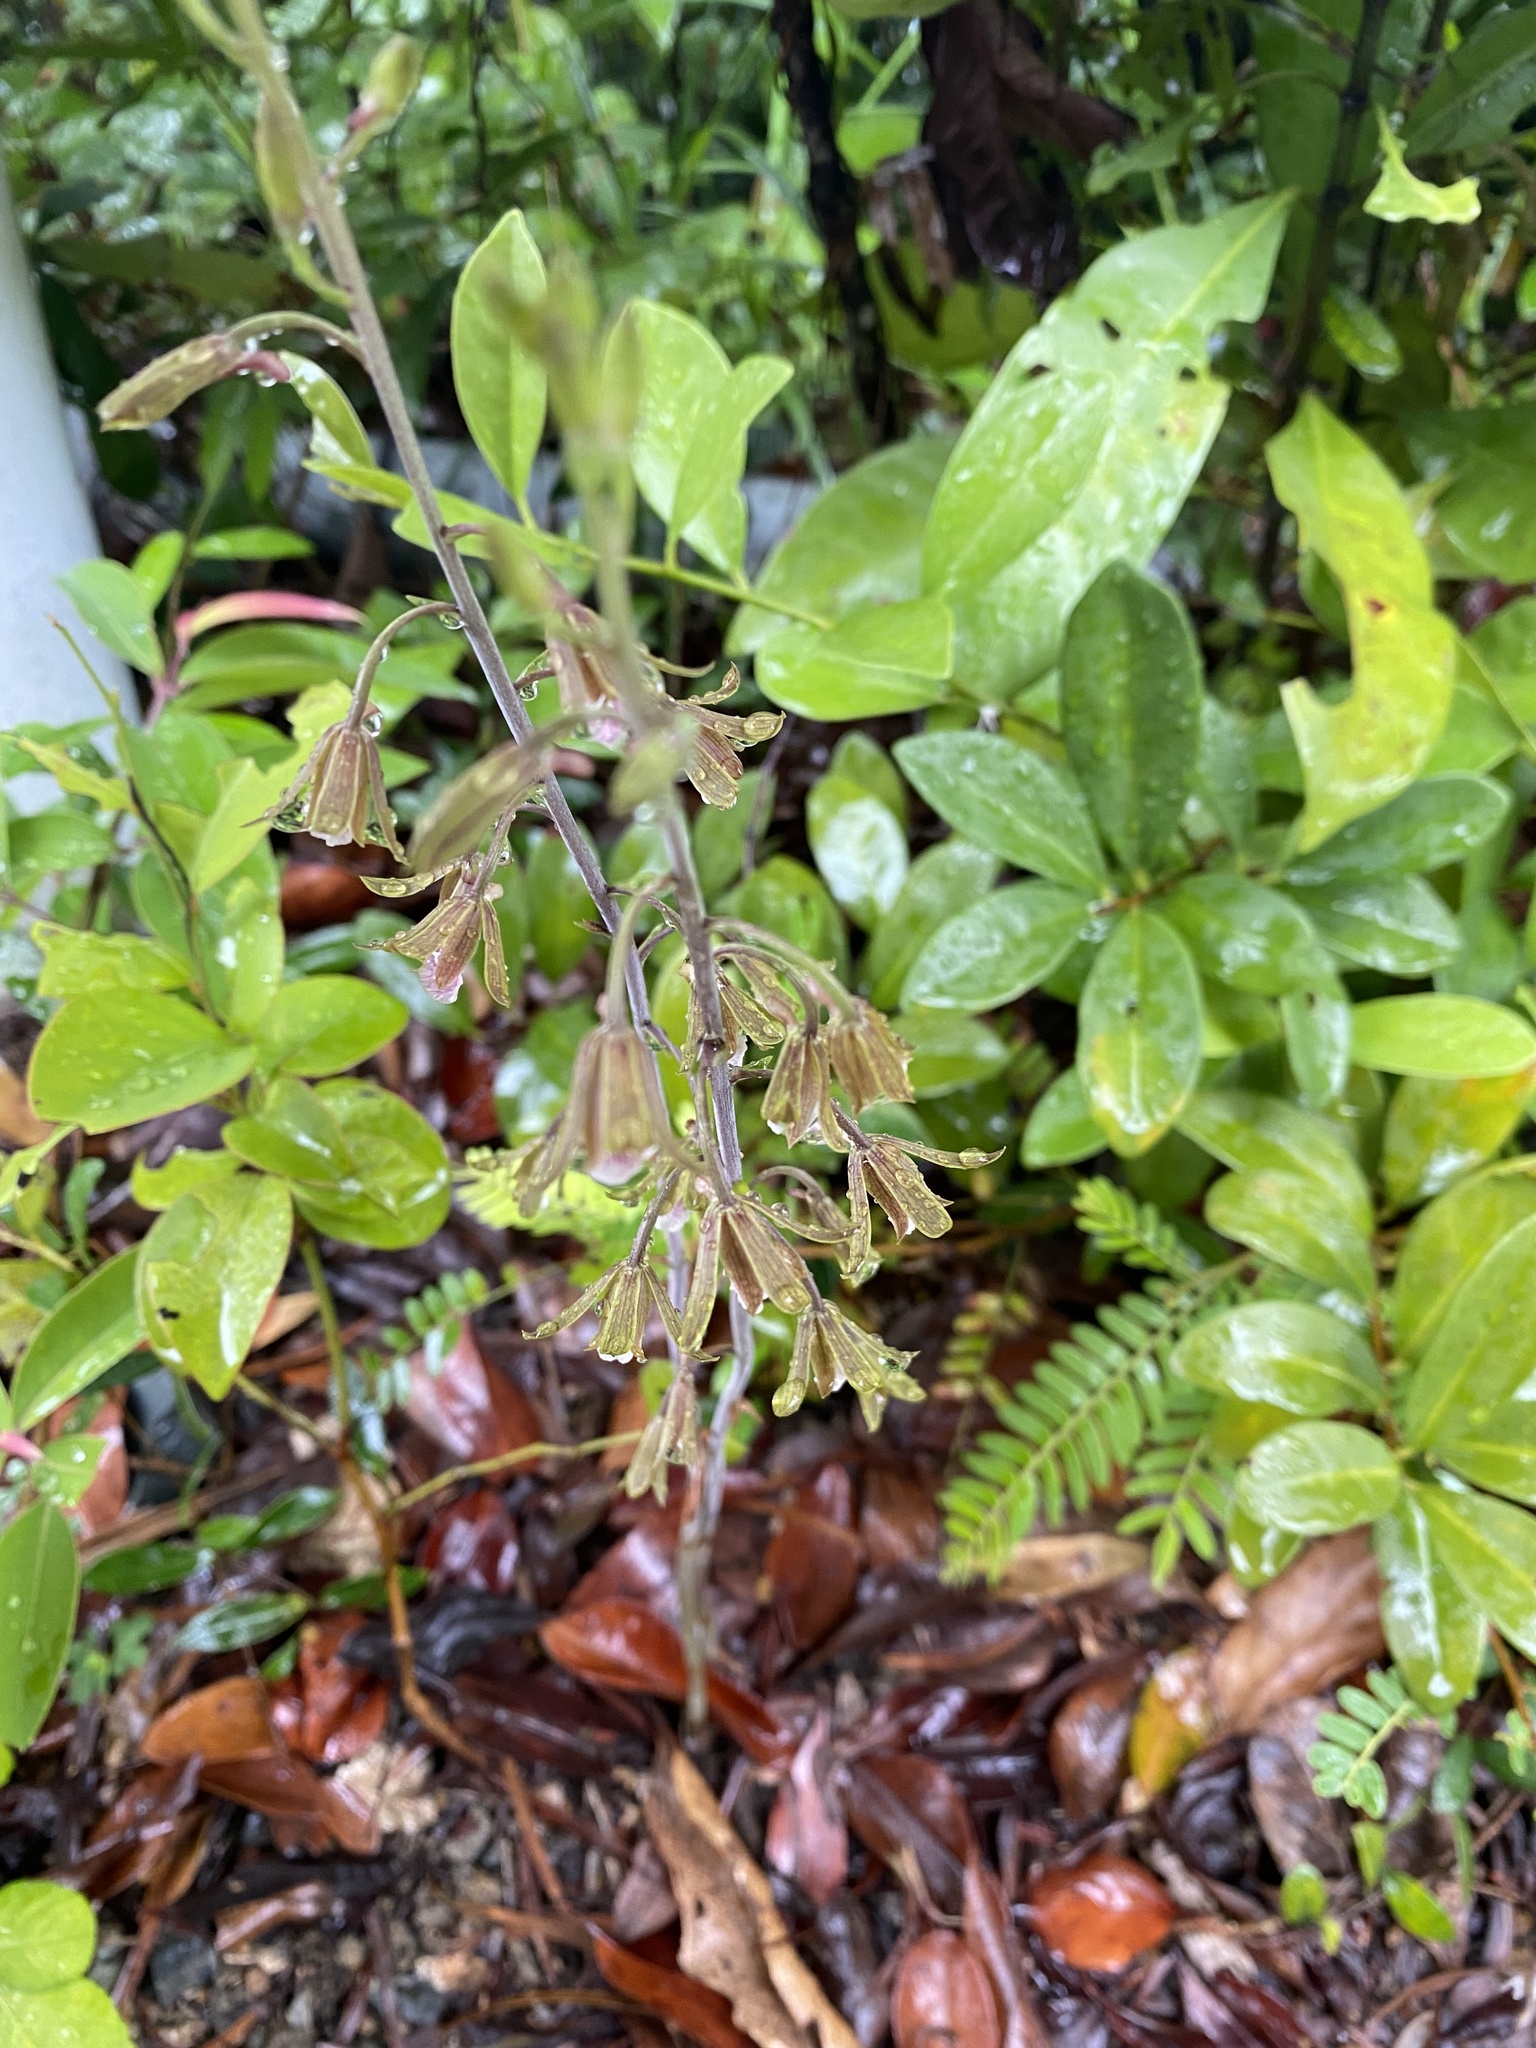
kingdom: Plantae
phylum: Tracheophyta
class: Liliopsida
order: Asparagales
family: Orchidaceae
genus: Eulophia
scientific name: Eulophia graminea
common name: Orchid
